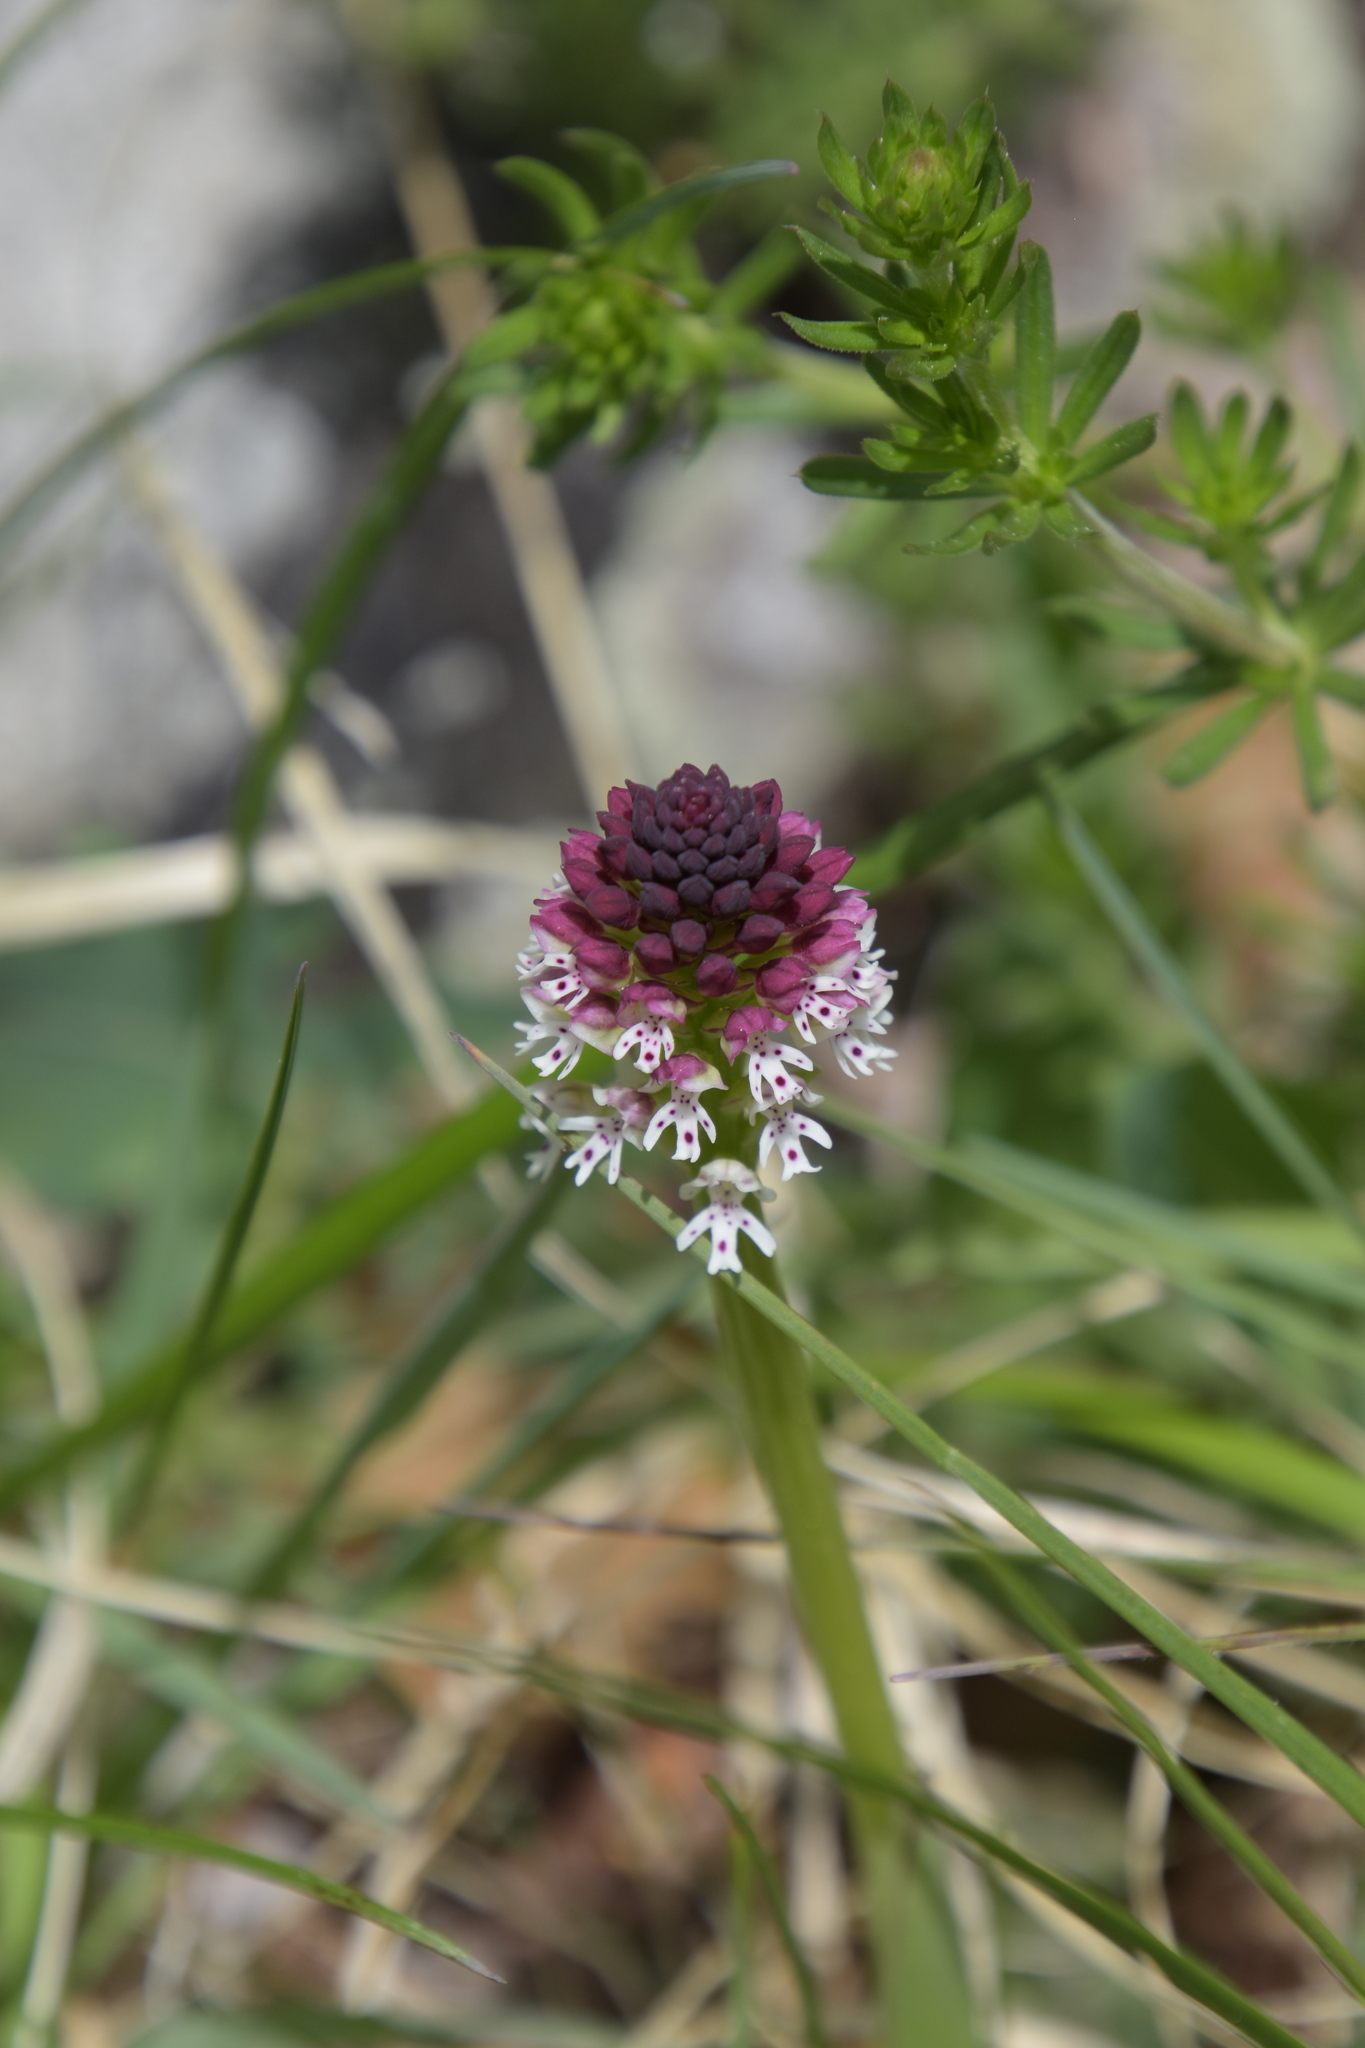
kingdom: Plantae
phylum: Tracheophyta
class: Liliopsida
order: Asparagales
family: Orchidaceae
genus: Neotinea
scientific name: Neotinea ustulata
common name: Burnt orchid
